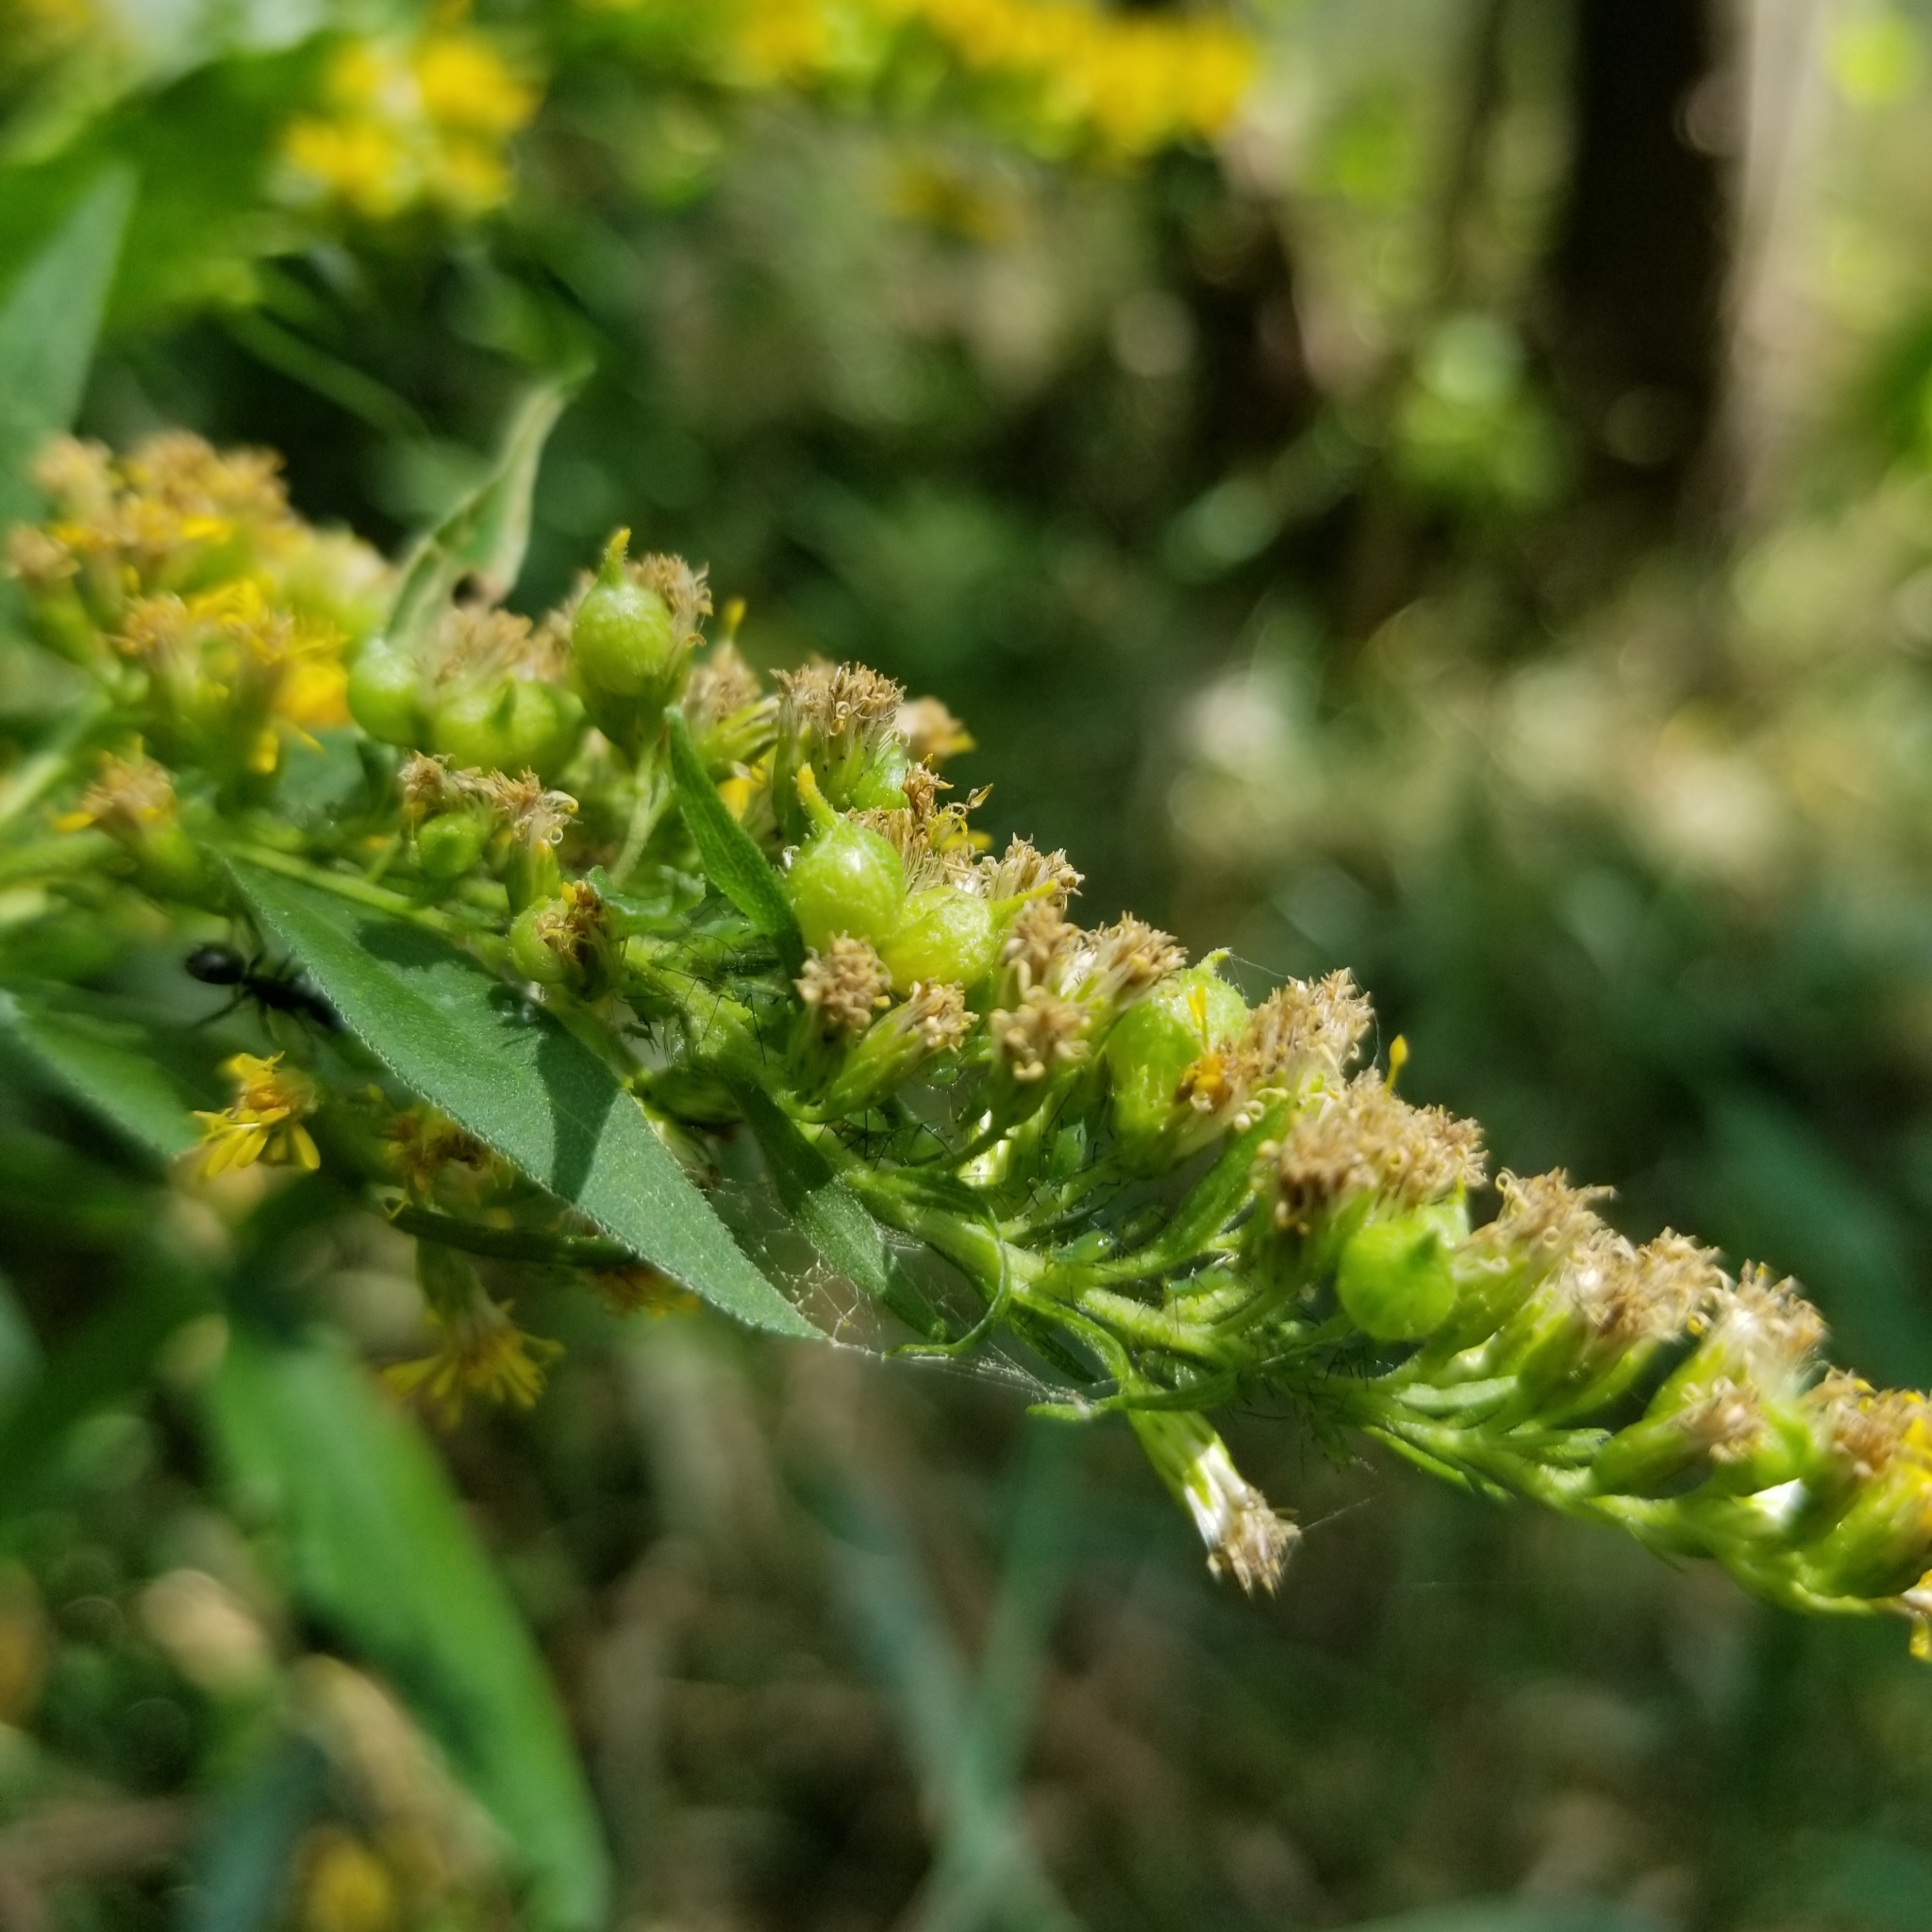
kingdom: Animalia
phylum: Arthropoda
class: Insecta
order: Diptera
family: Cecidomyiidae
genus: Schizomyia
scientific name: Schizomyia racemicola
